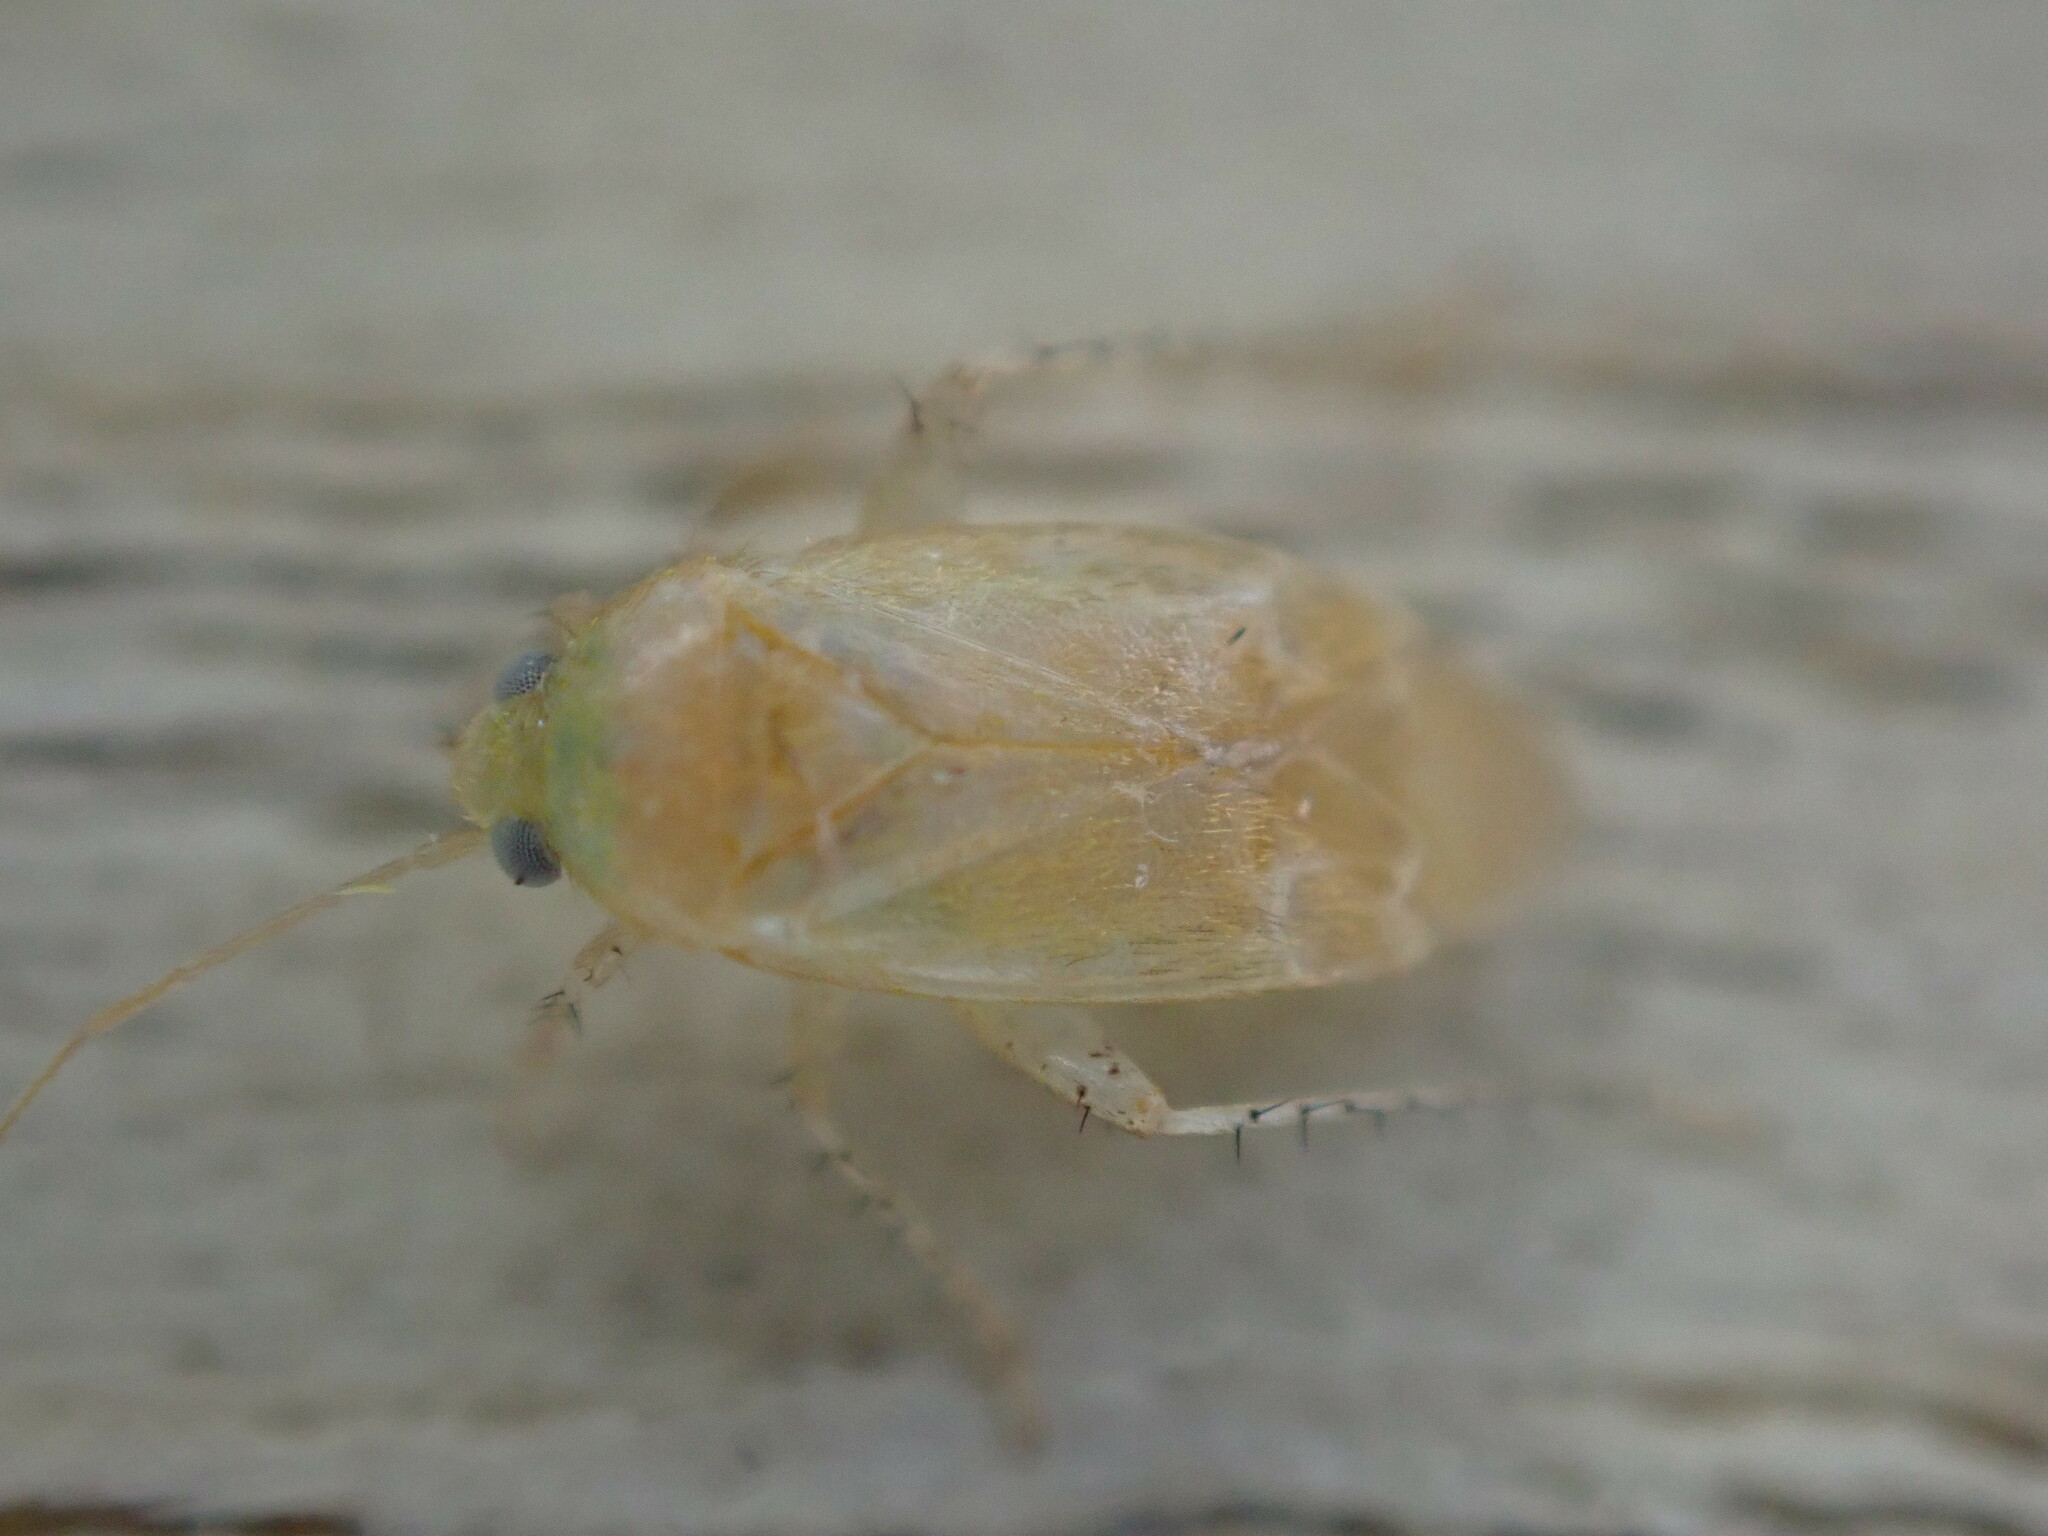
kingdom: Animalia
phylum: Arthropoda
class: Insecta
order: Hemiptera
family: Miridae
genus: Psallus
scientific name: Psallus anaemicus
